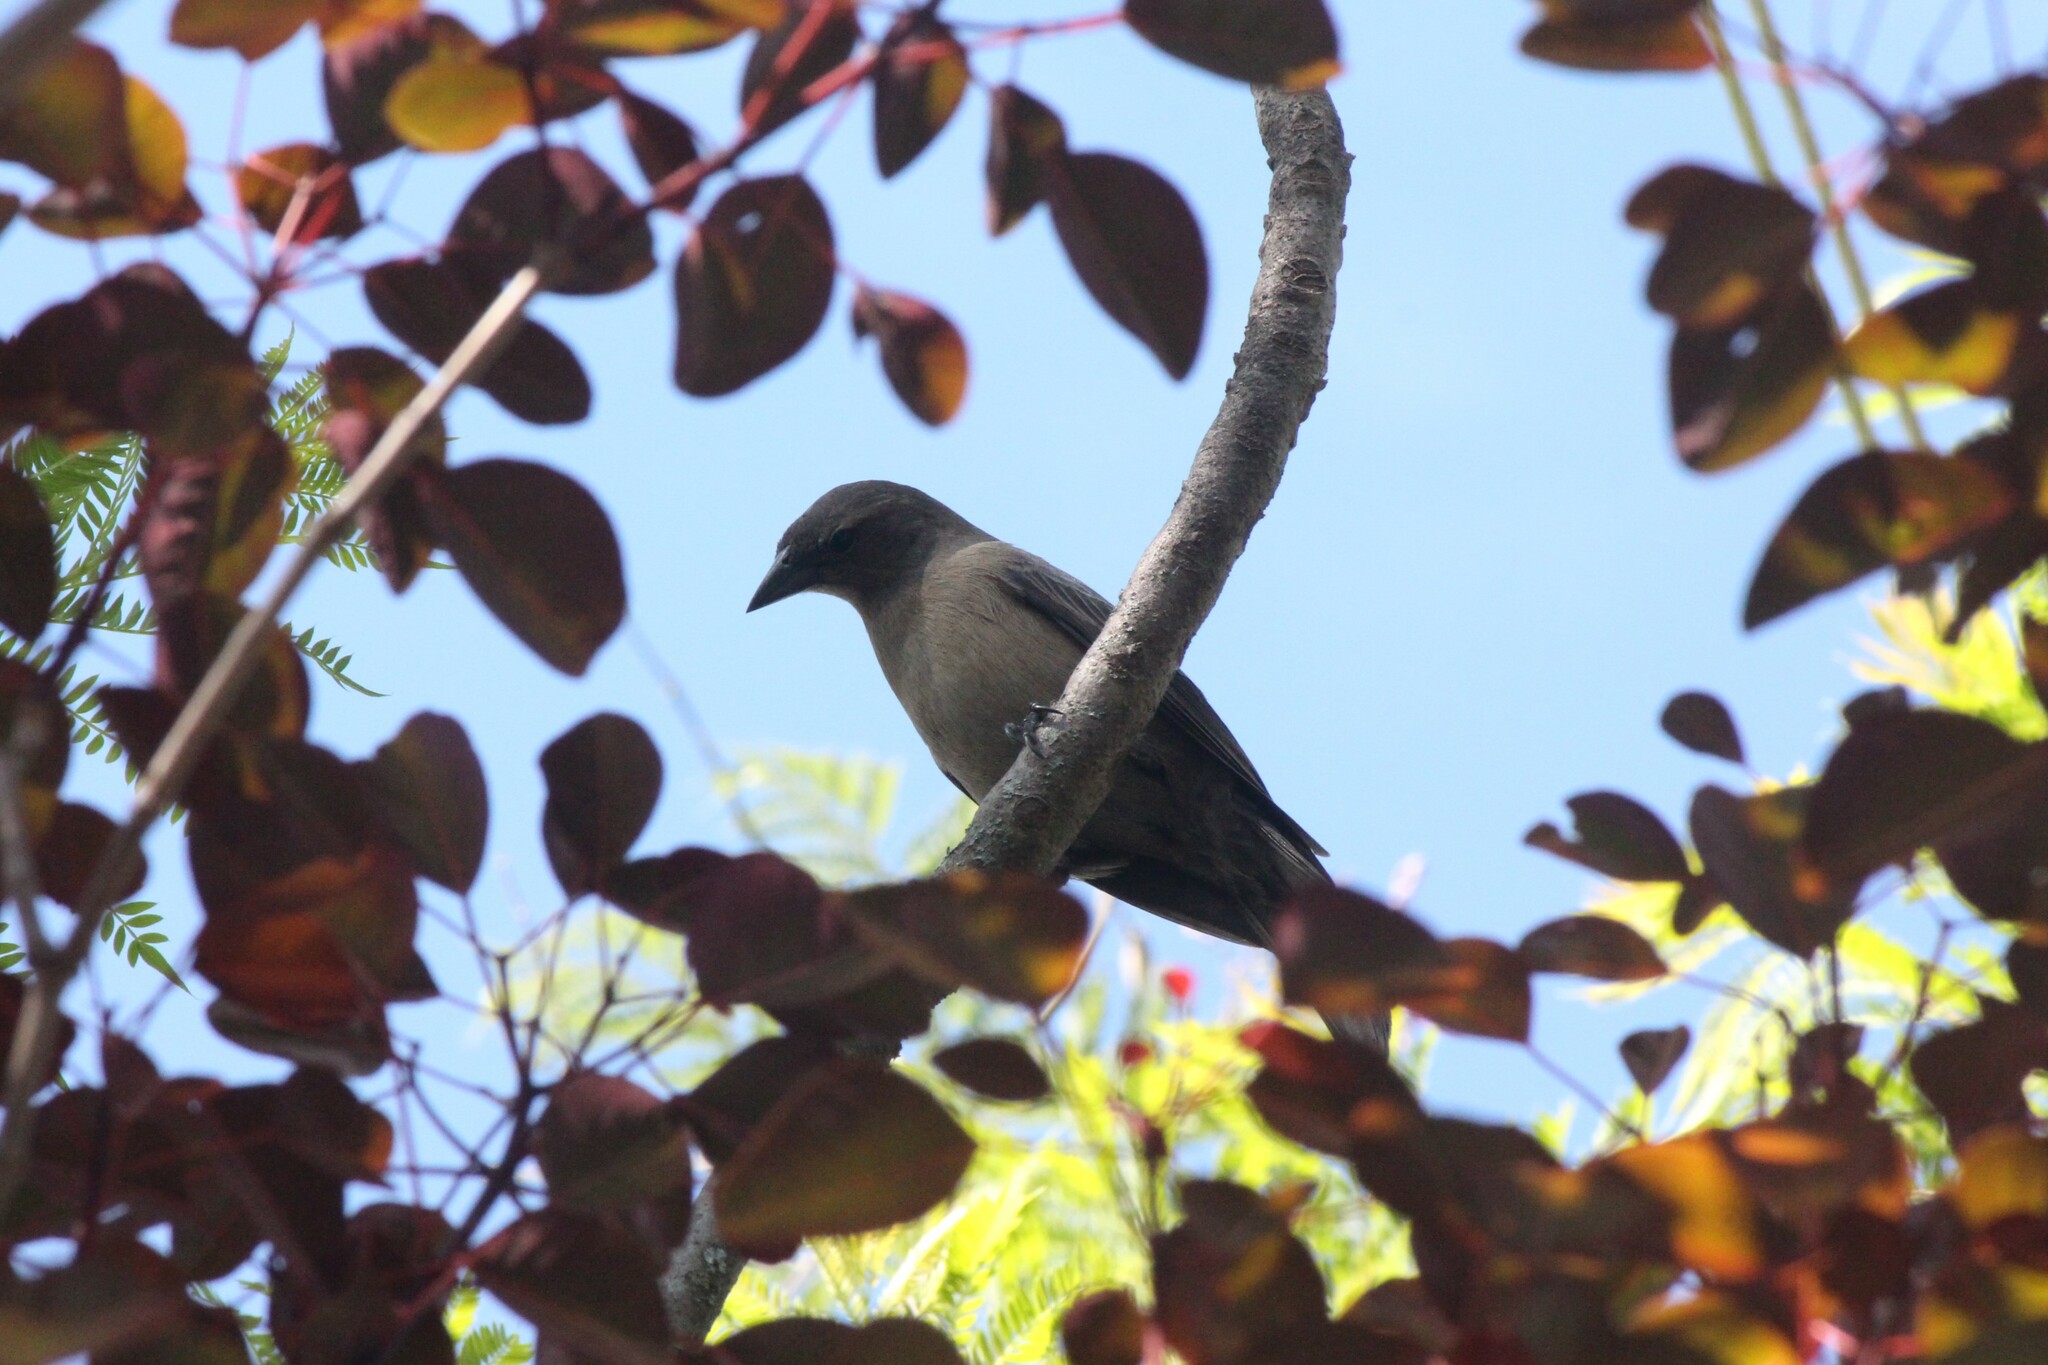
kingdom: Animalia
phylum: Chordata
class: Aves
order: Passeriformes
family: Icteridae
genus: Molothrus
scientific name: Molothrus bonariensis
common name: Shiny cowbird
